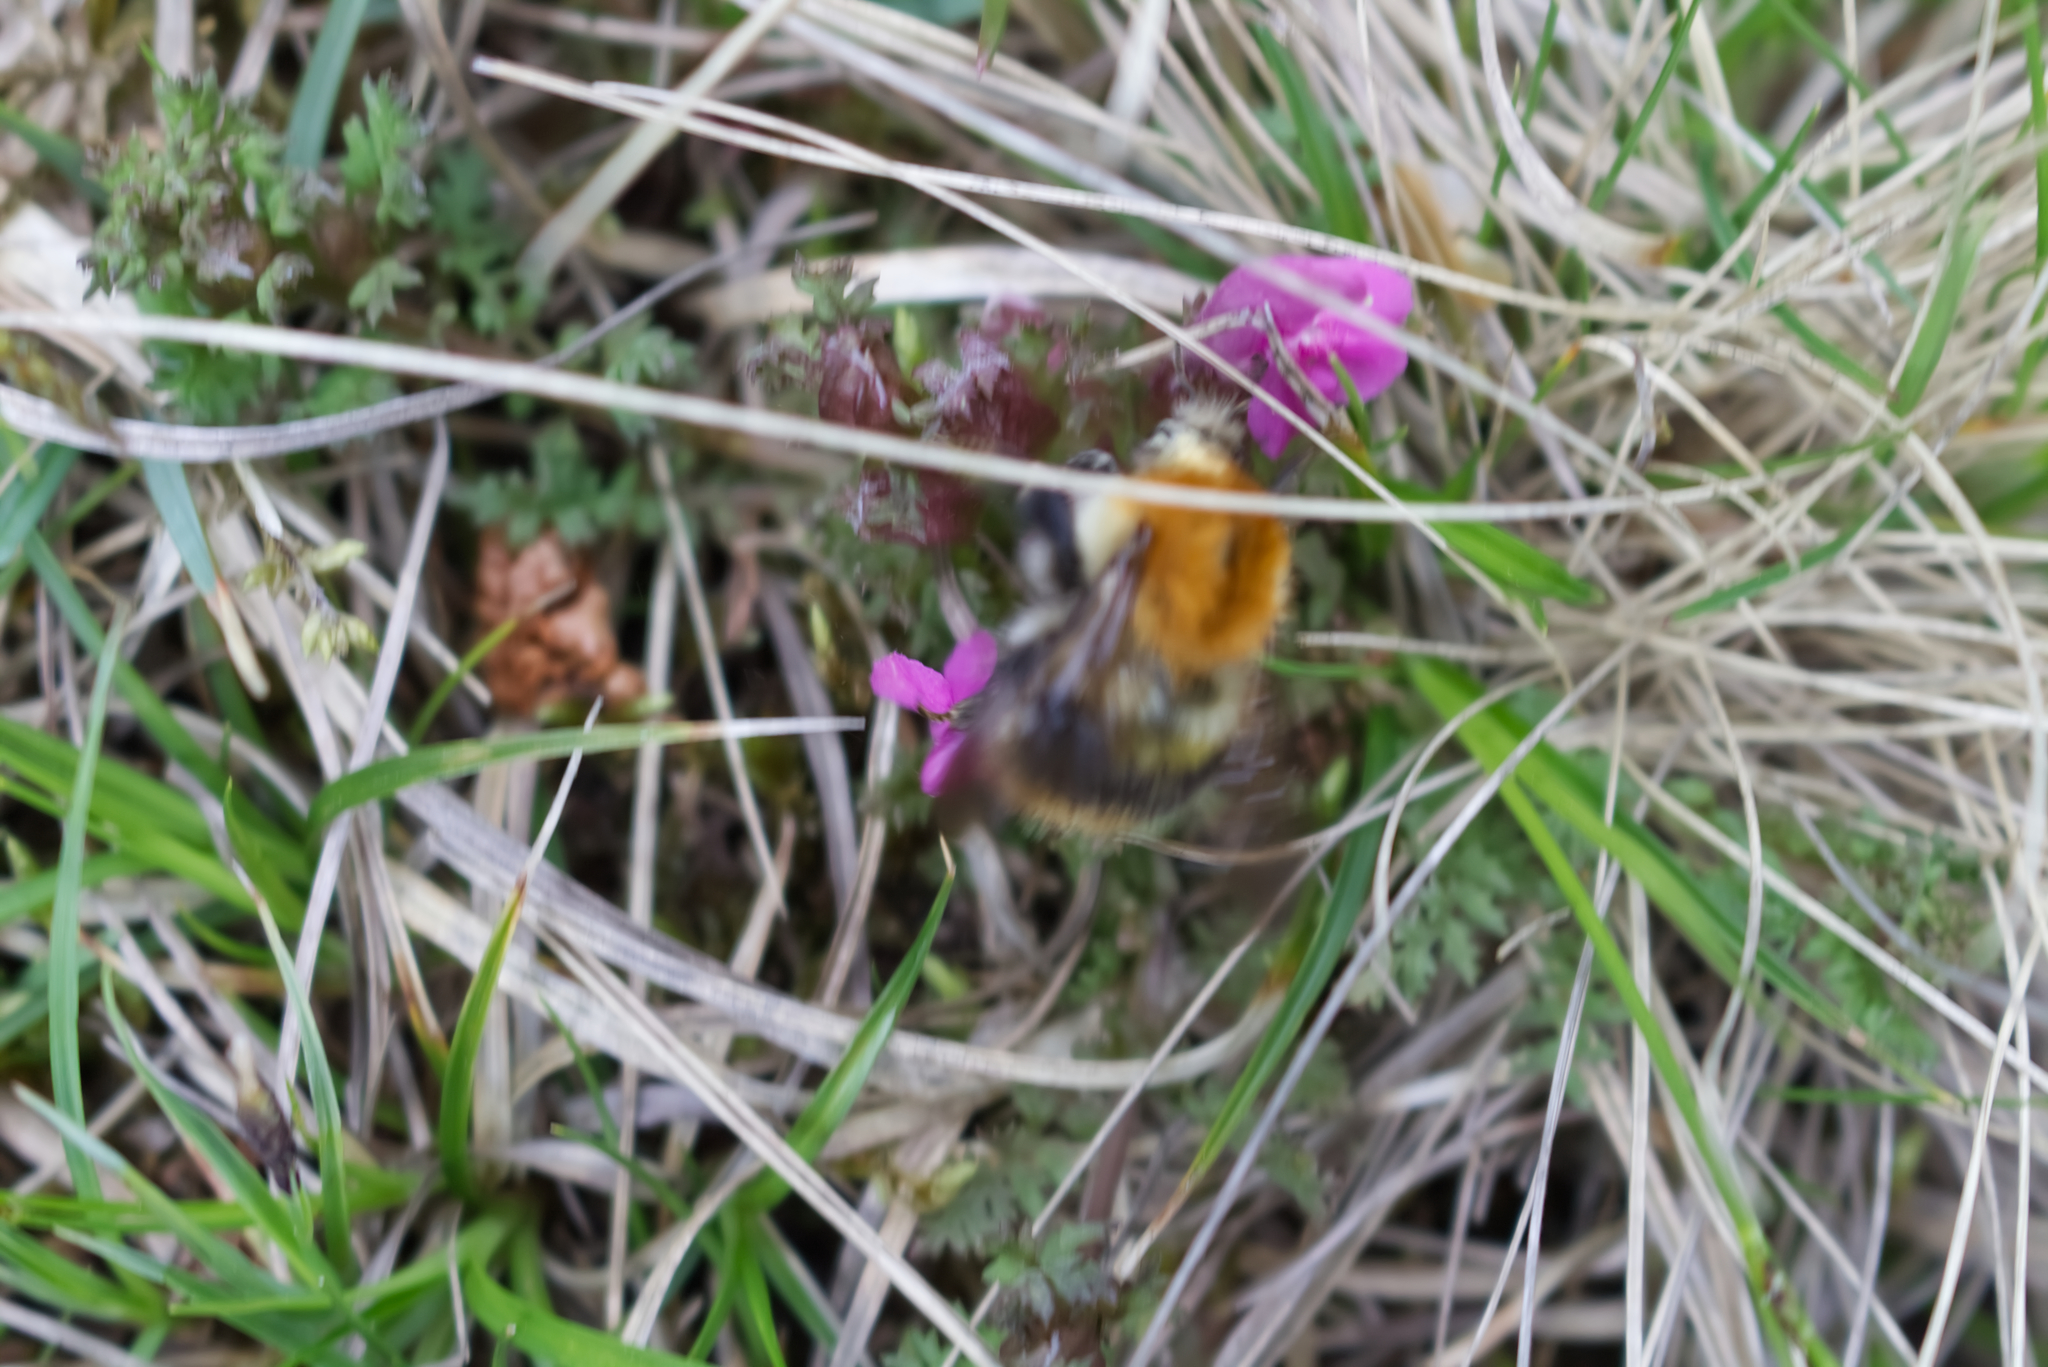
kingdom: Animalia
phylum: Arthropoda
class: Insecta
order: Hymenoptera
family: Apidae
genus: Bombus
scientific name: Bombus pascuorum
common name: Common carder bee
